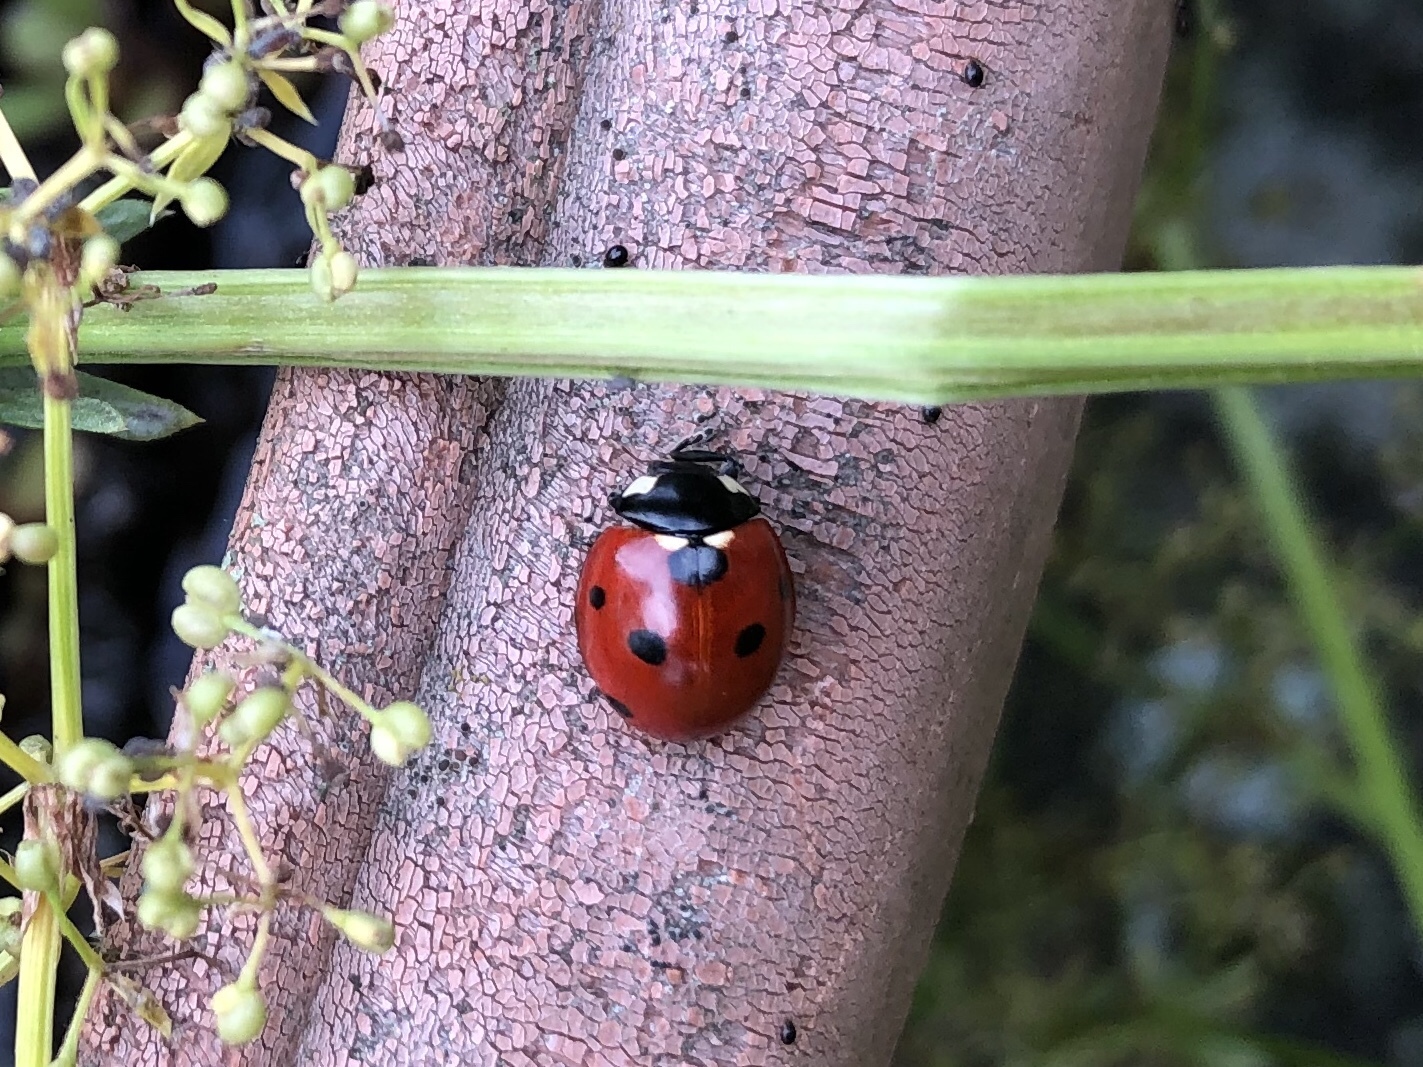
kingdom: Animalia
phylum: Arthropoda
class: Insecta
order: Coleoptera
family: Coccinellidae
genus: Coccinella
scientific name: Coccinella septempunctata
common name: Sevenspotted lady beetle
